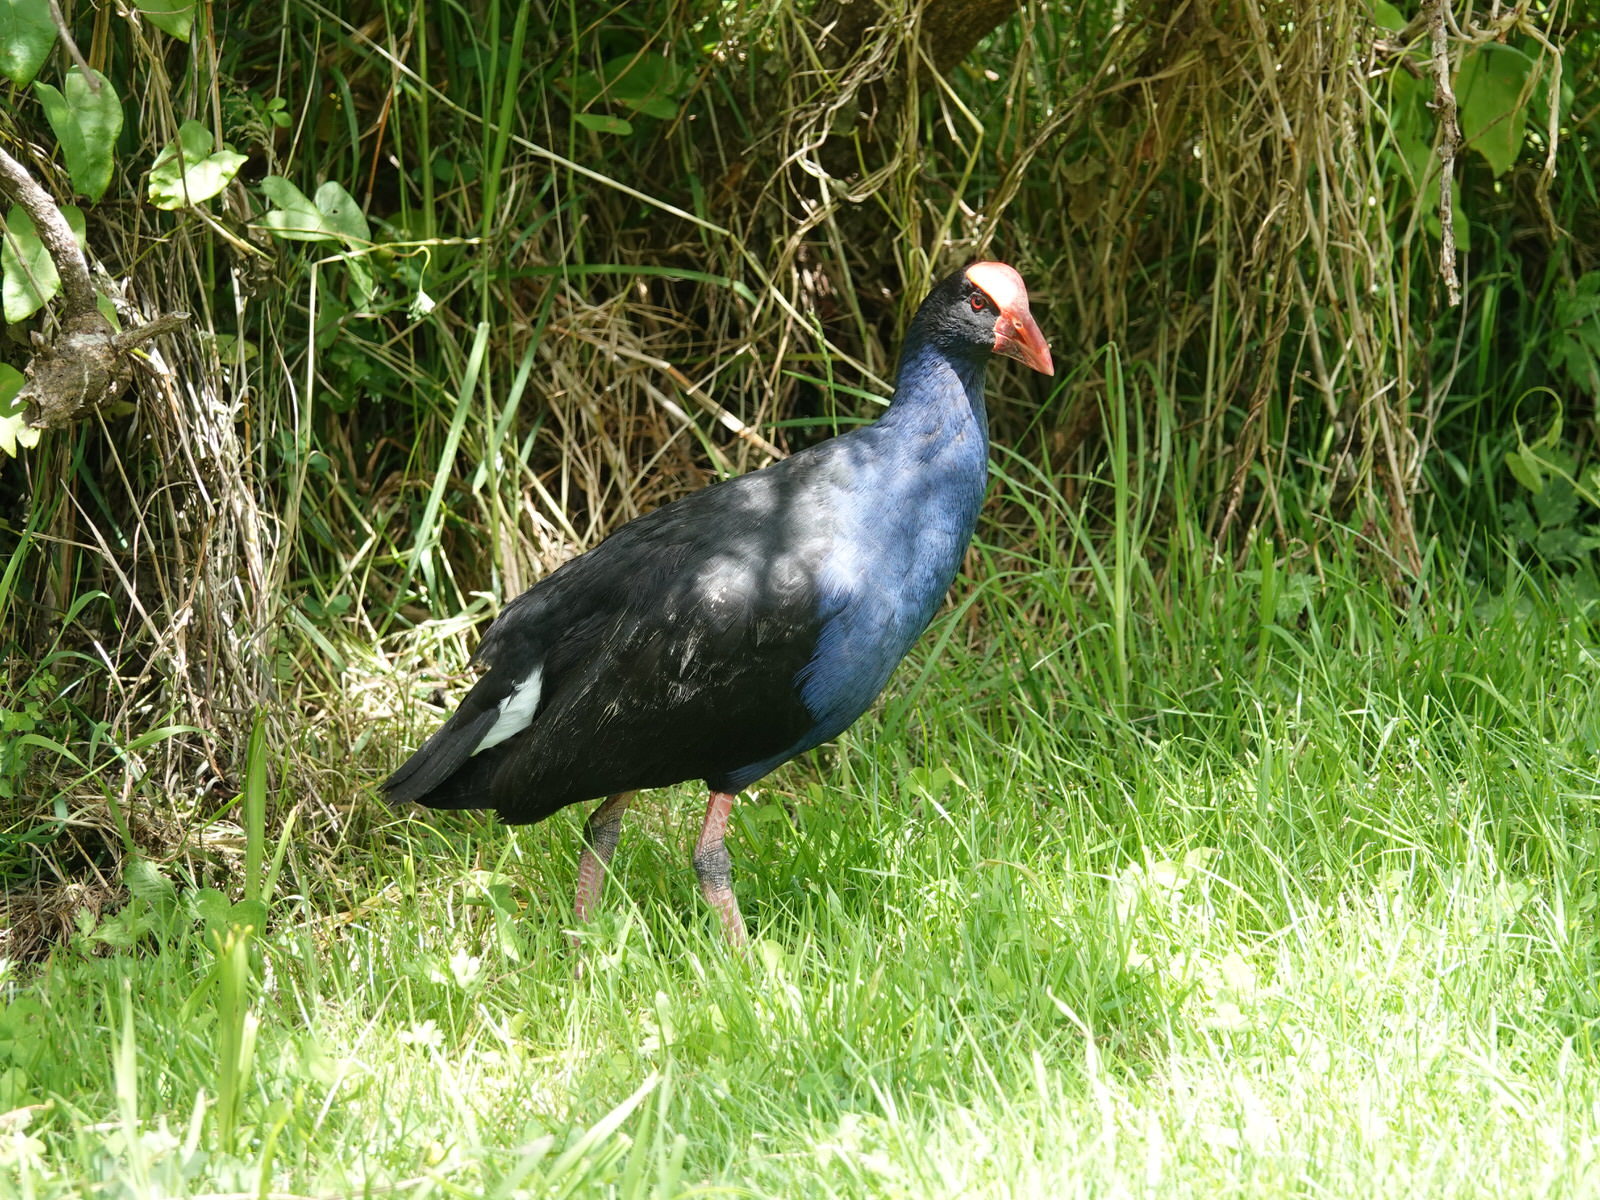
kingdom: Animalia
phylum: Chordata
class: Aves
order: Gruiformes
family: Rallidae
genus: Porphyrio
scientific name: Porphyrio melanotus
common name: Australasian swamphen
